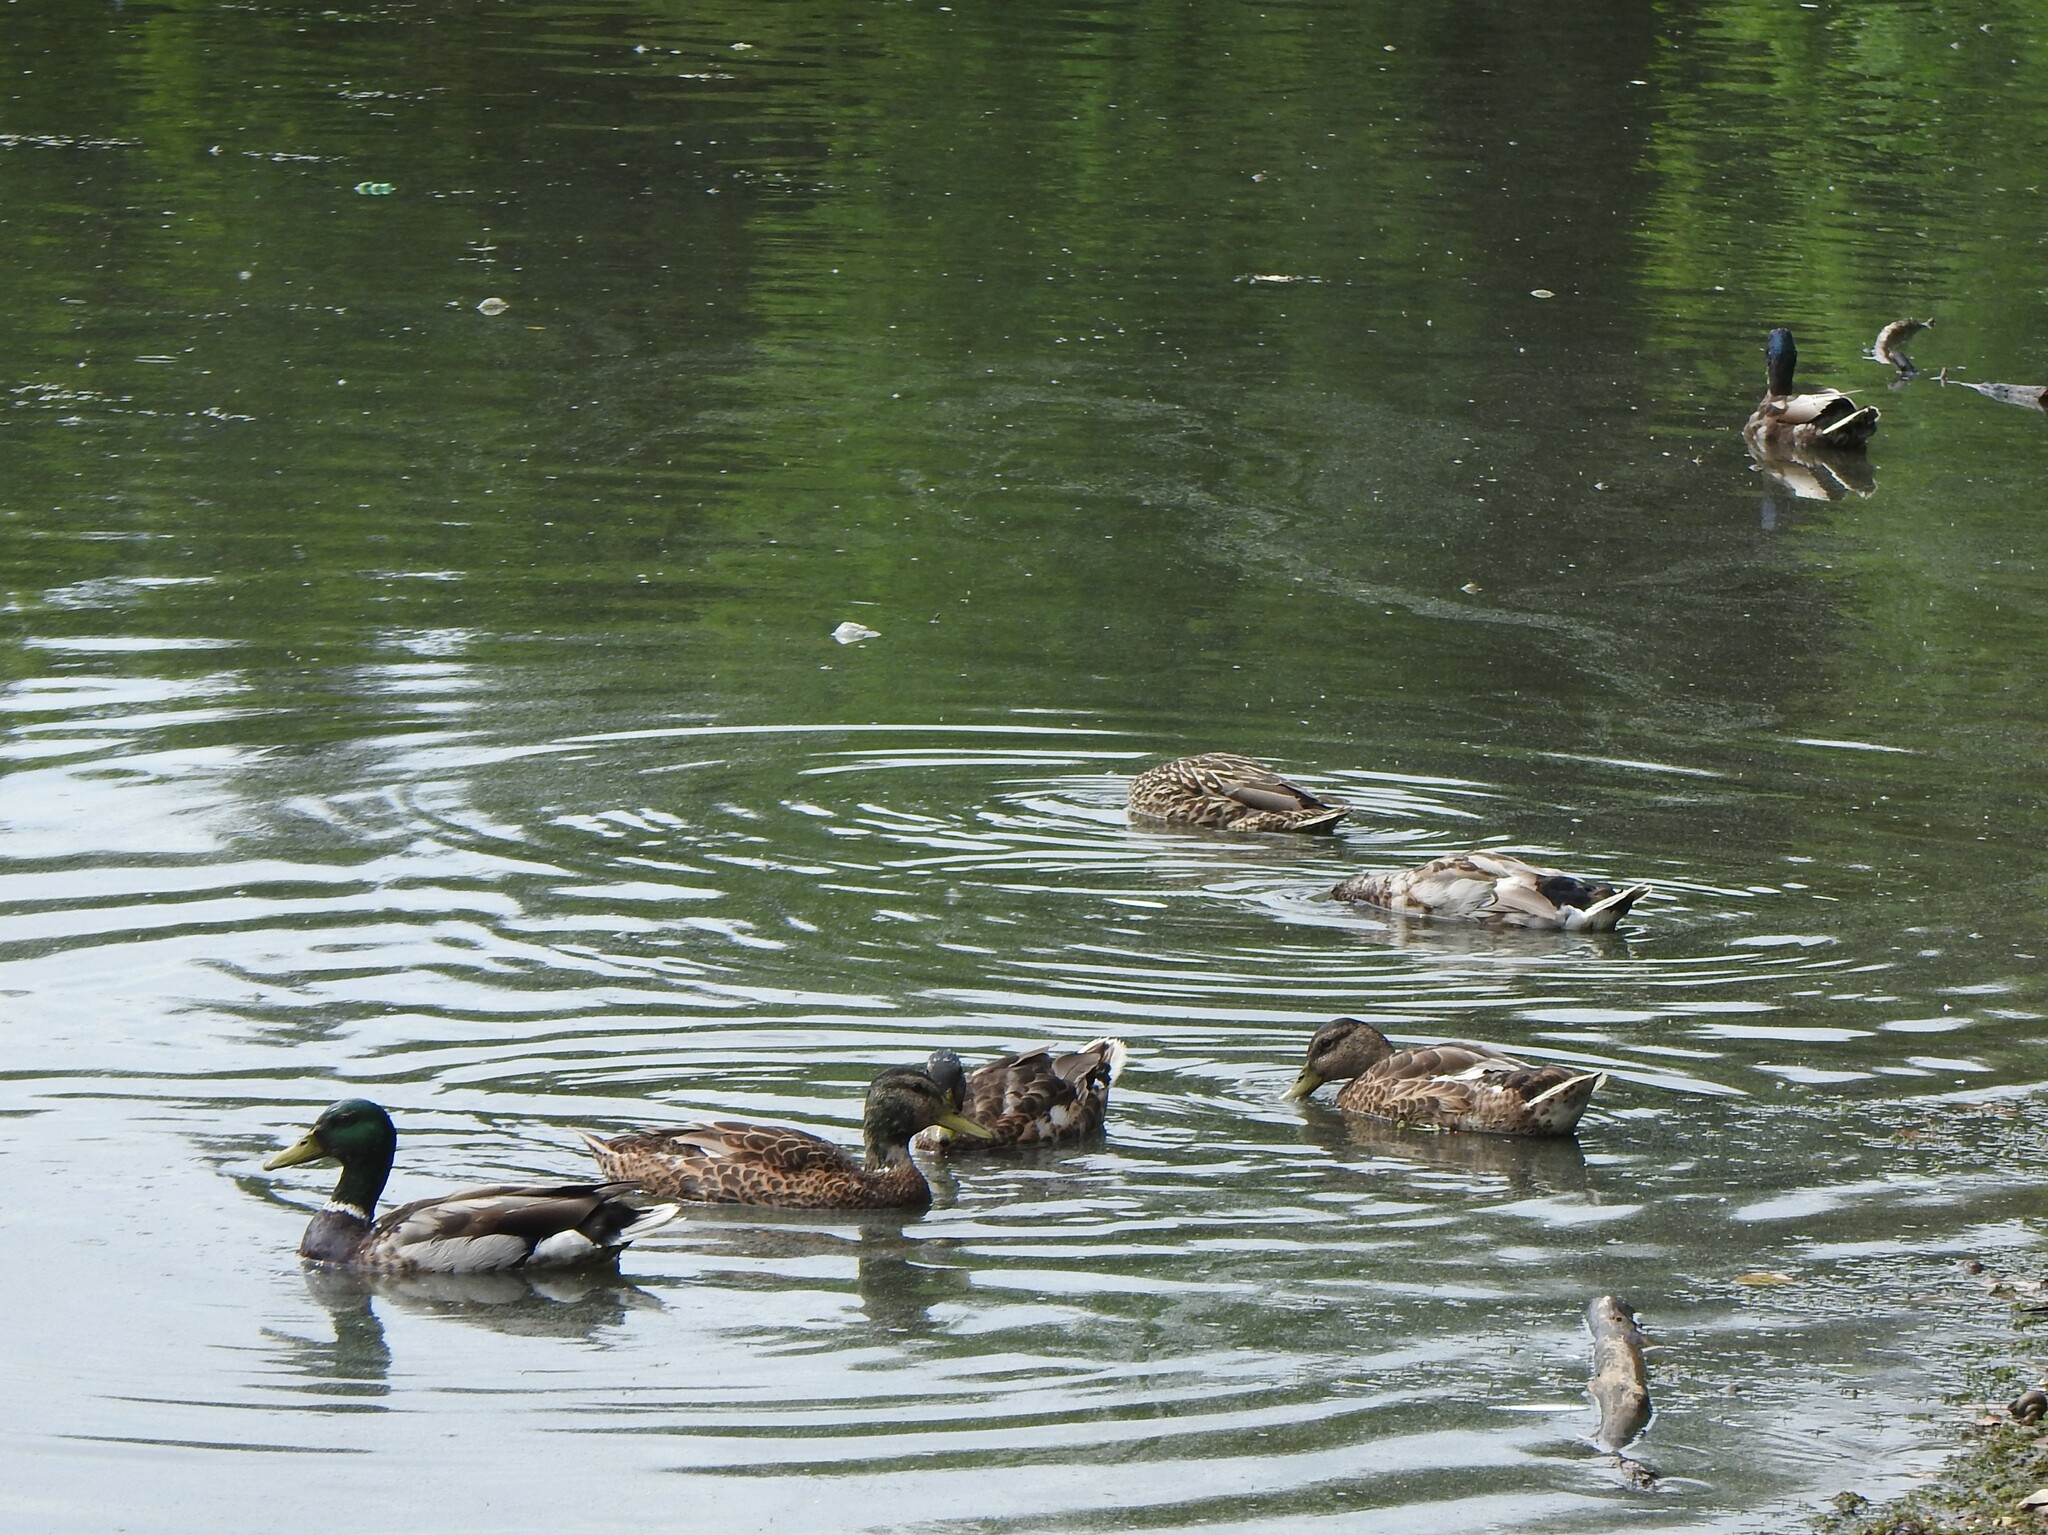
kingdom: Animalia
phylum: Chordata
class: Aves
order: Anseriformes
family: Anatidae
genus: Anas
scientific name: Anas platyrhynchos
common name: Mallard
